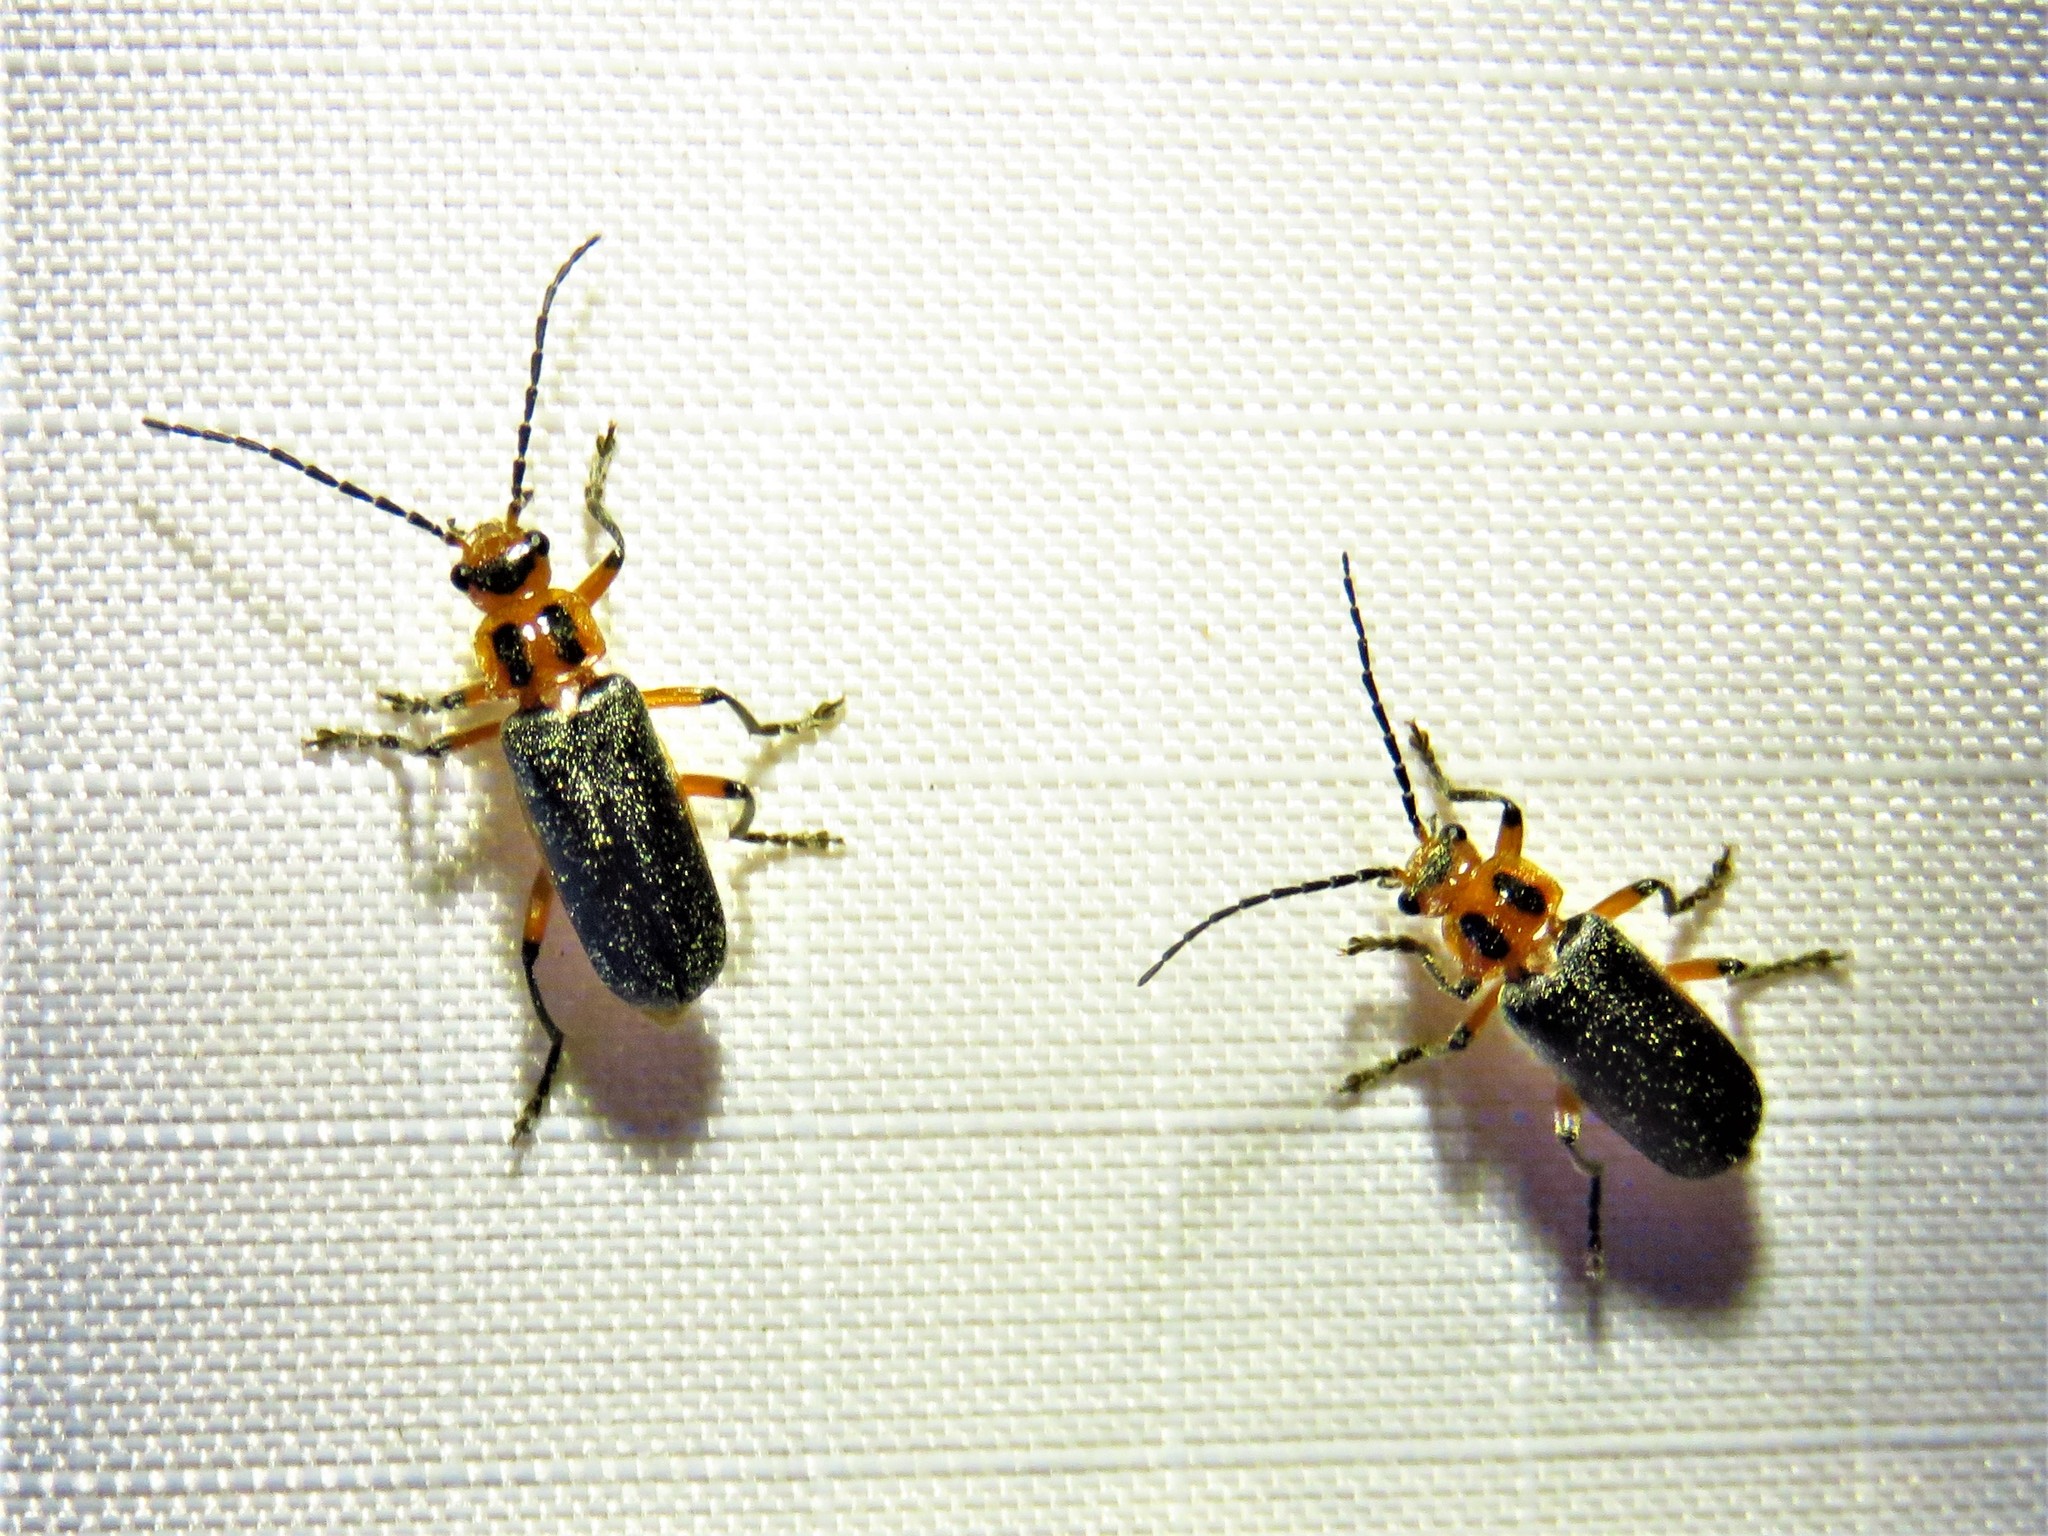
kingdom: Animalia
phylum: Arthropoda
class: Insecta
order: Coleoptera
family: Cantharidae
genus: Atalantycha
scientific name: Atalantycha bilineata
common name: Two-lined leatherwing
